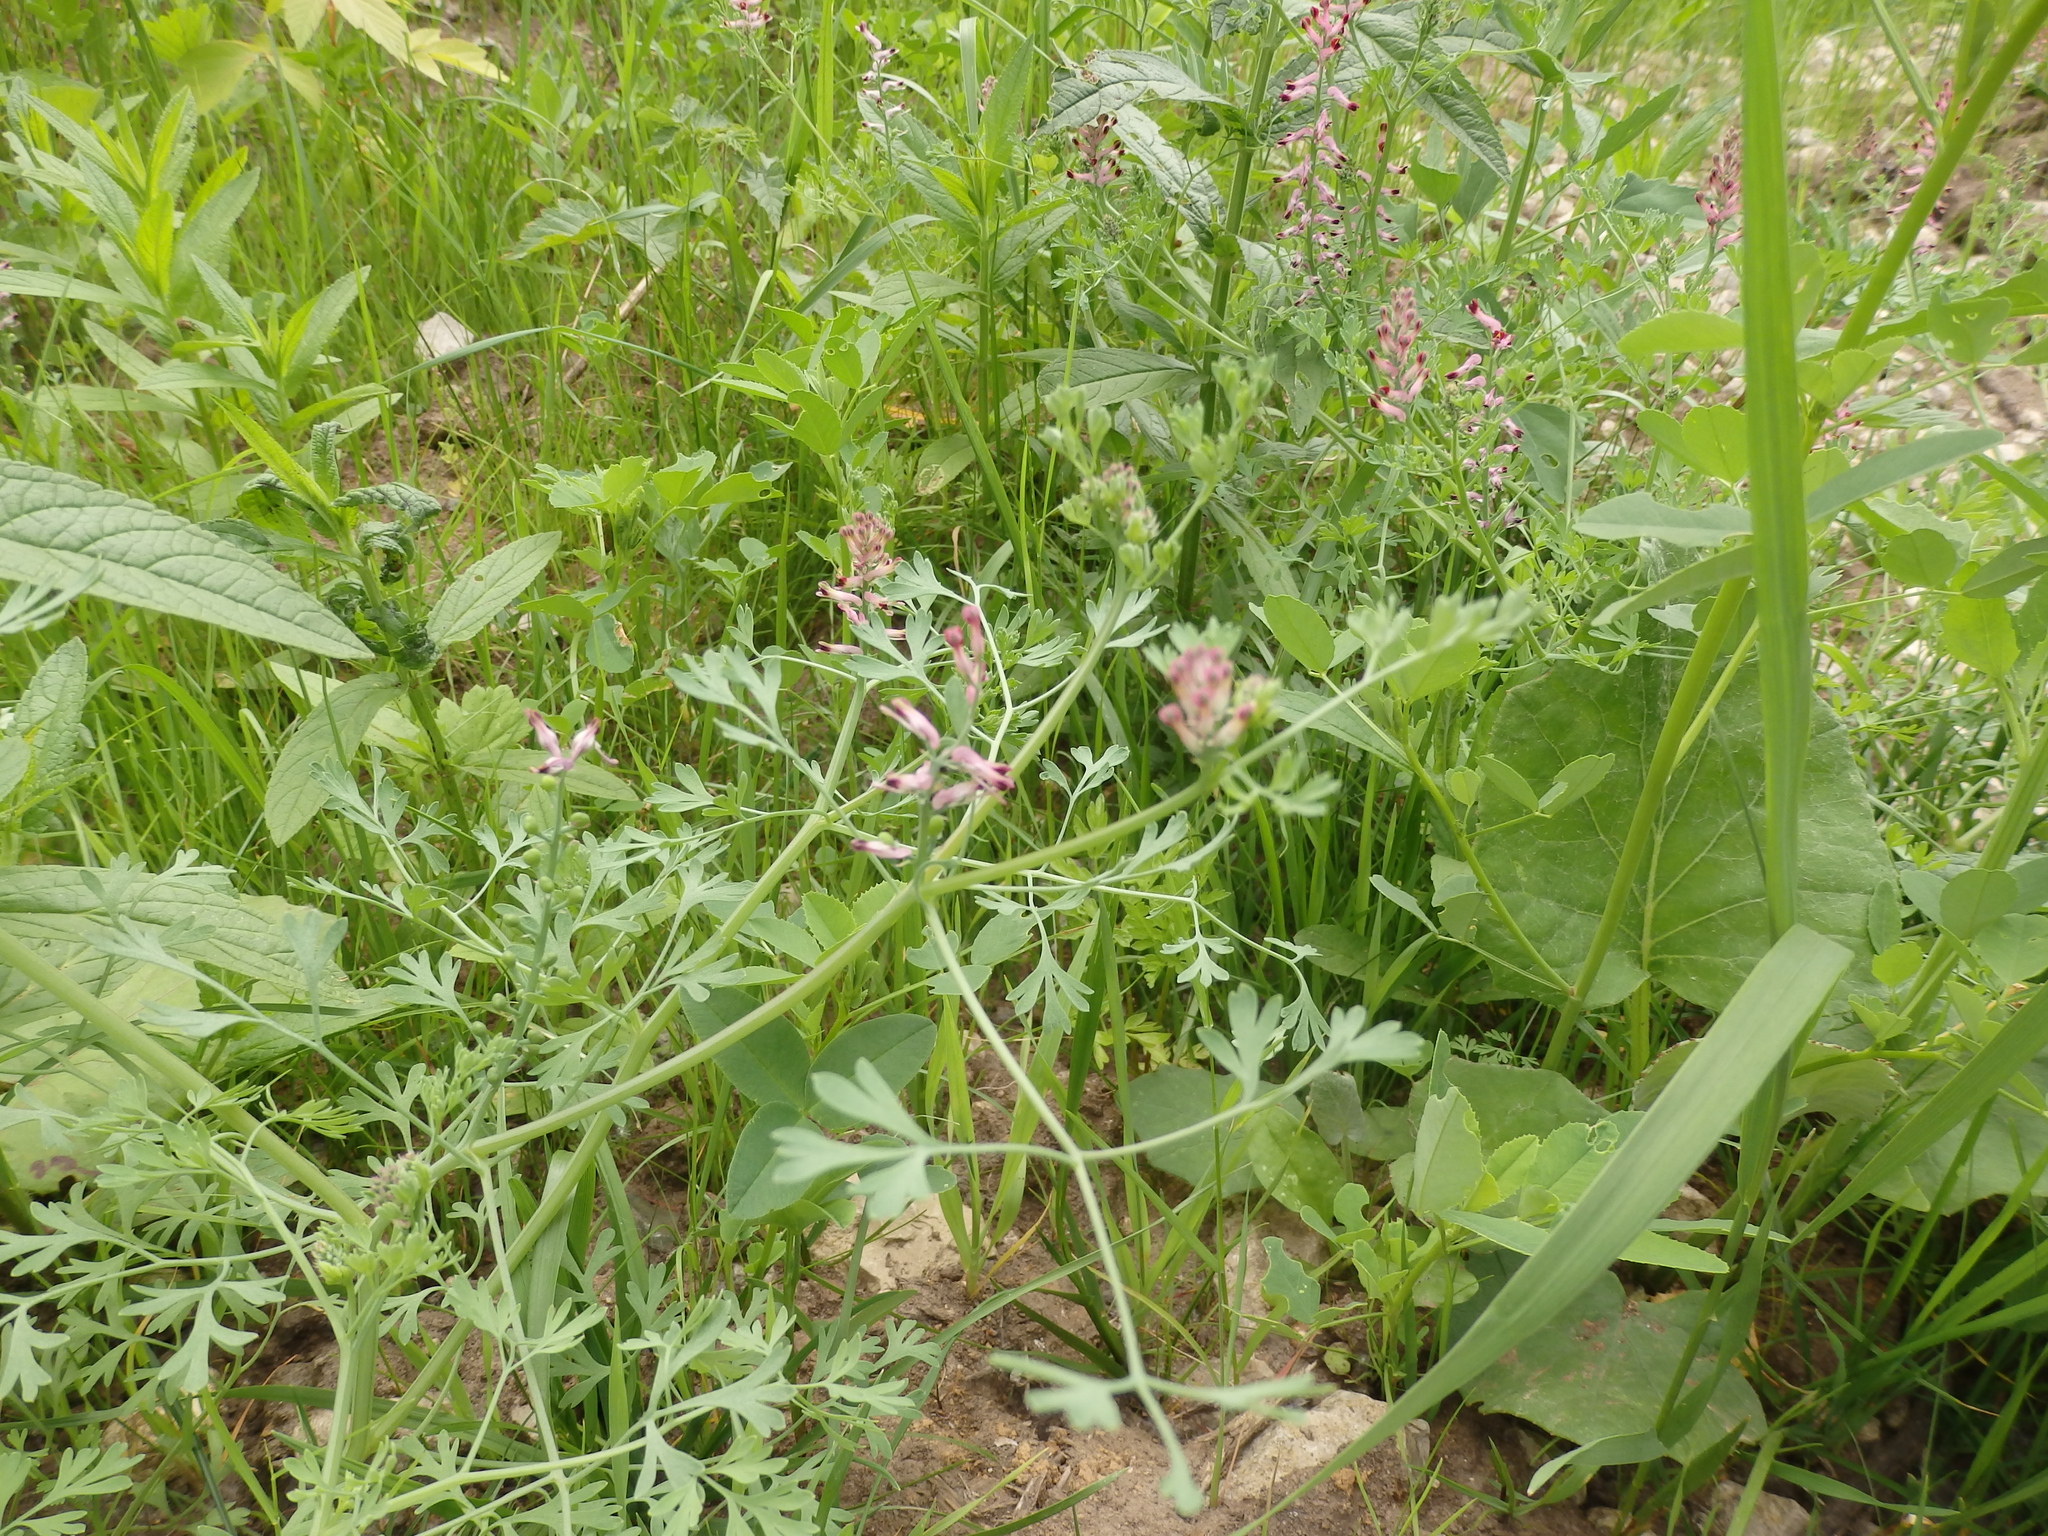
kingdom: Plantae
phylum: Tracheophyta
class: Magnoliopsida
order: Ranunculales
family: Papaveraceae
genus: Fumaria
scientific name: Fumaria officinalis
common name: Common fumitory
